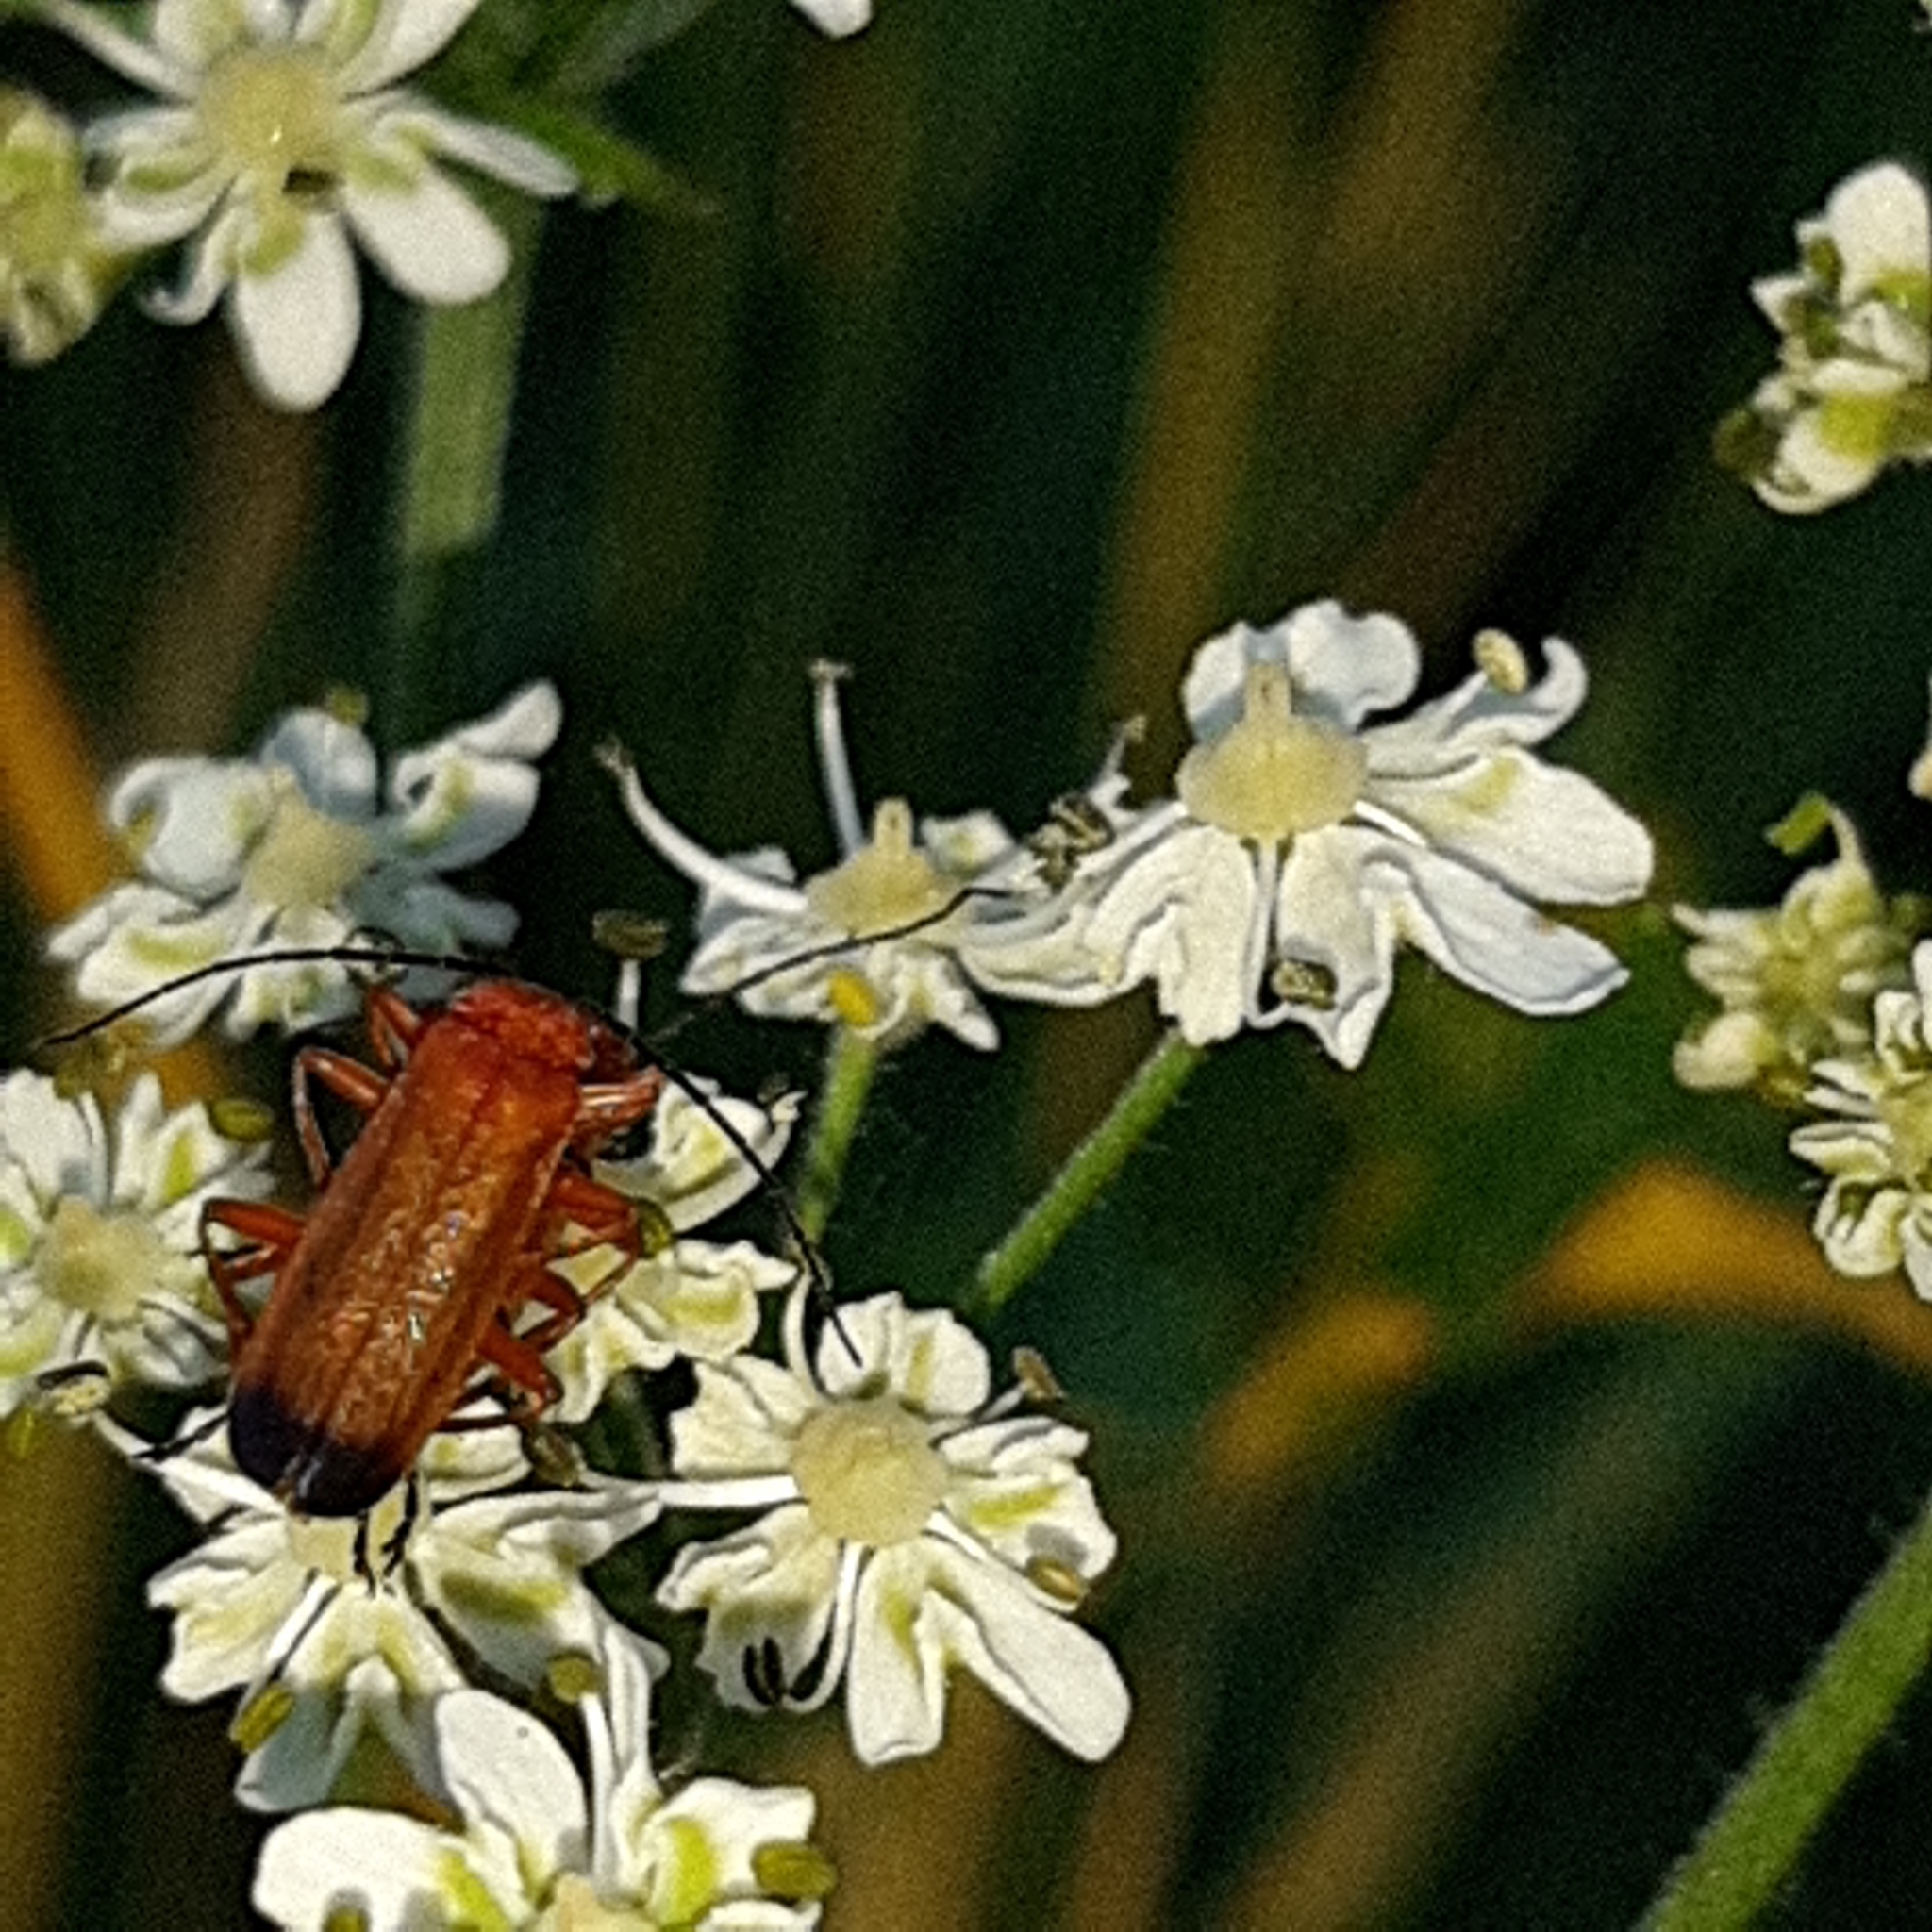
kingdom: Animalia
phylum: Arthropoda
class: Insecta
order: Coleoptera
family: Cantharidae
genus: Rhagonycha
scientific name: Rhagonycha fulva
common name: Common red soldier beetle
